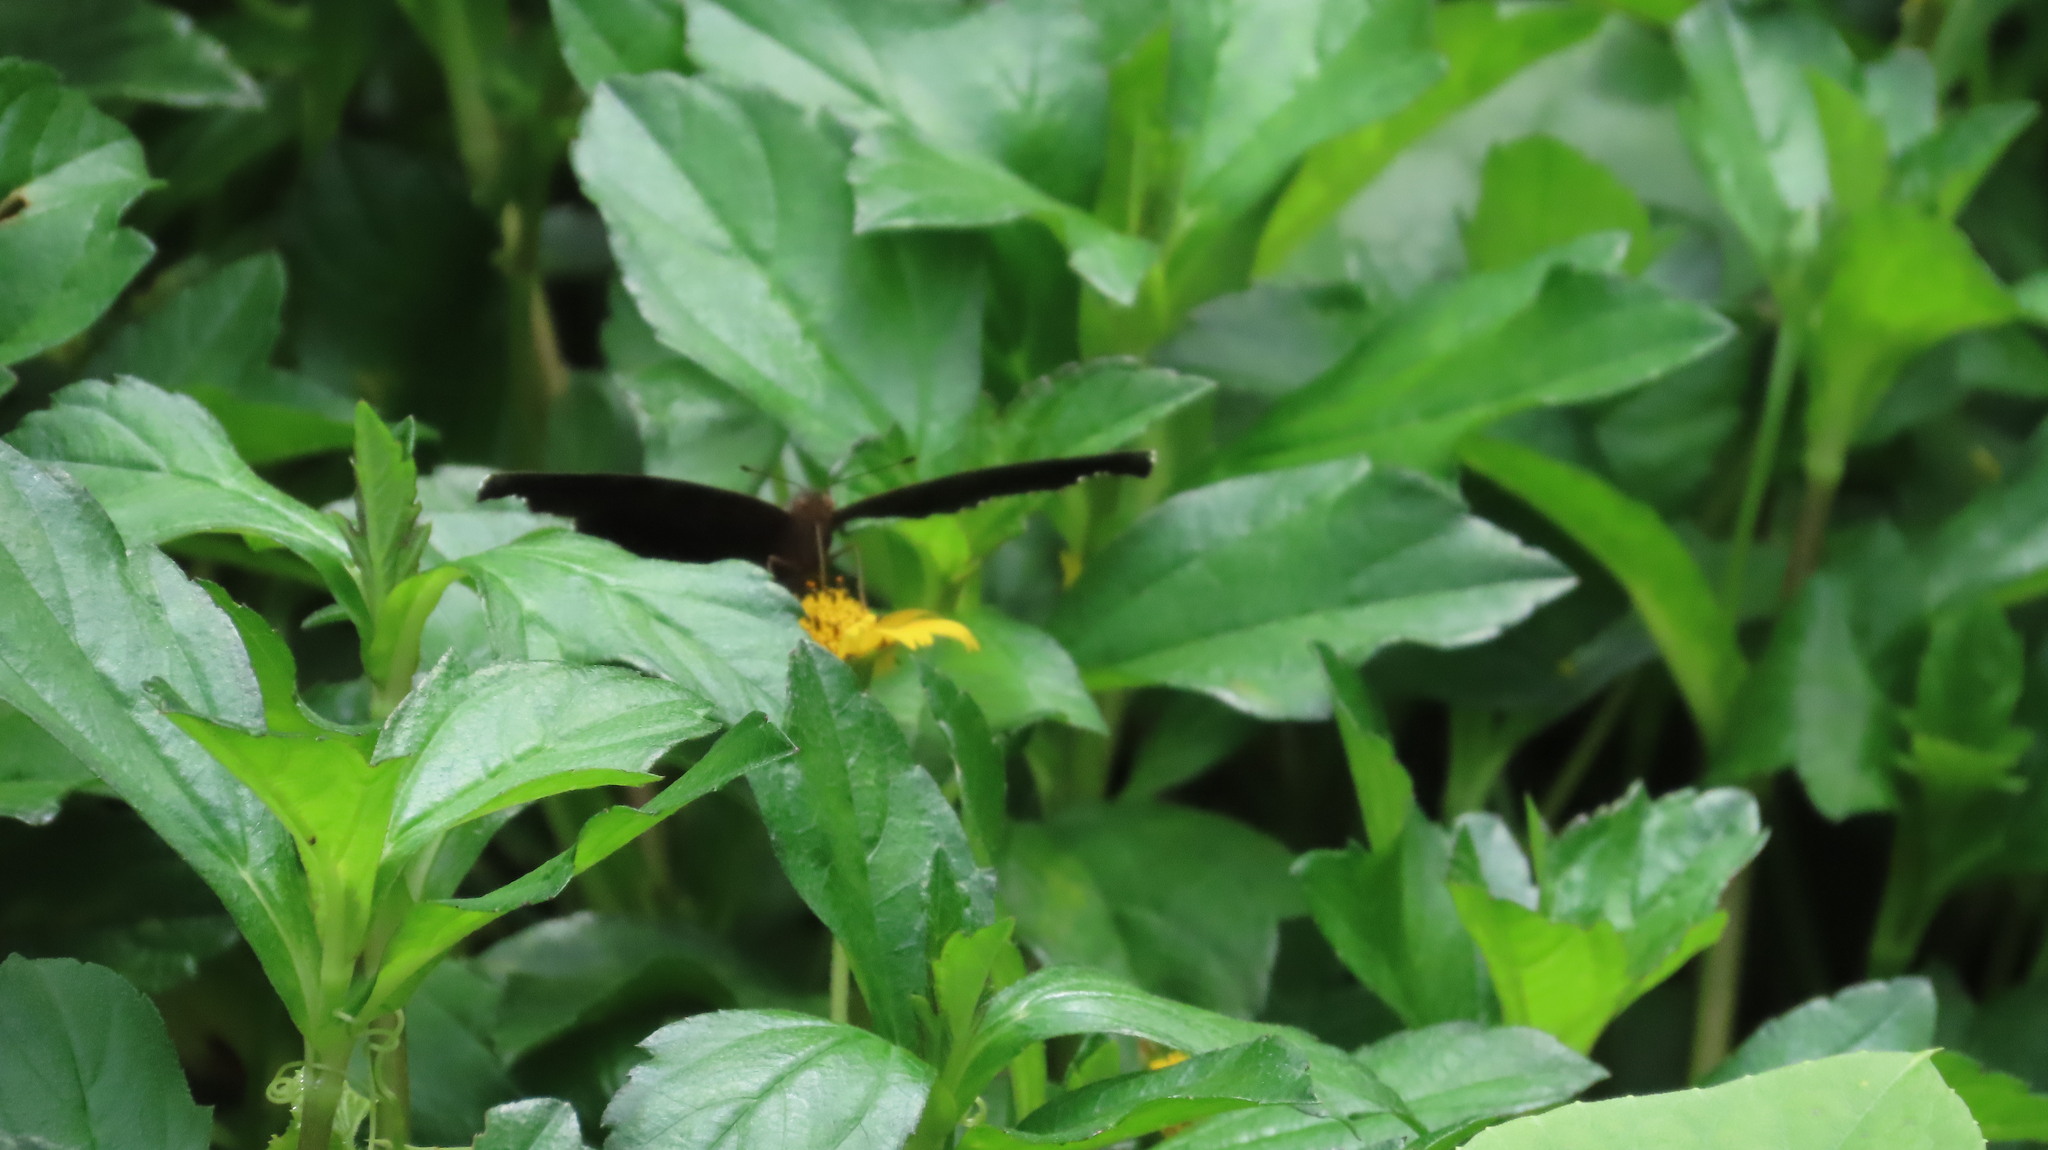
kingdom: Animalia
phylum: Arthropoda
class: Insecta
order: Lepidoptera
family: Nymphalidae
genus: Junonia
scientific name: Junonia iphita
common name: Chocolate pansy
